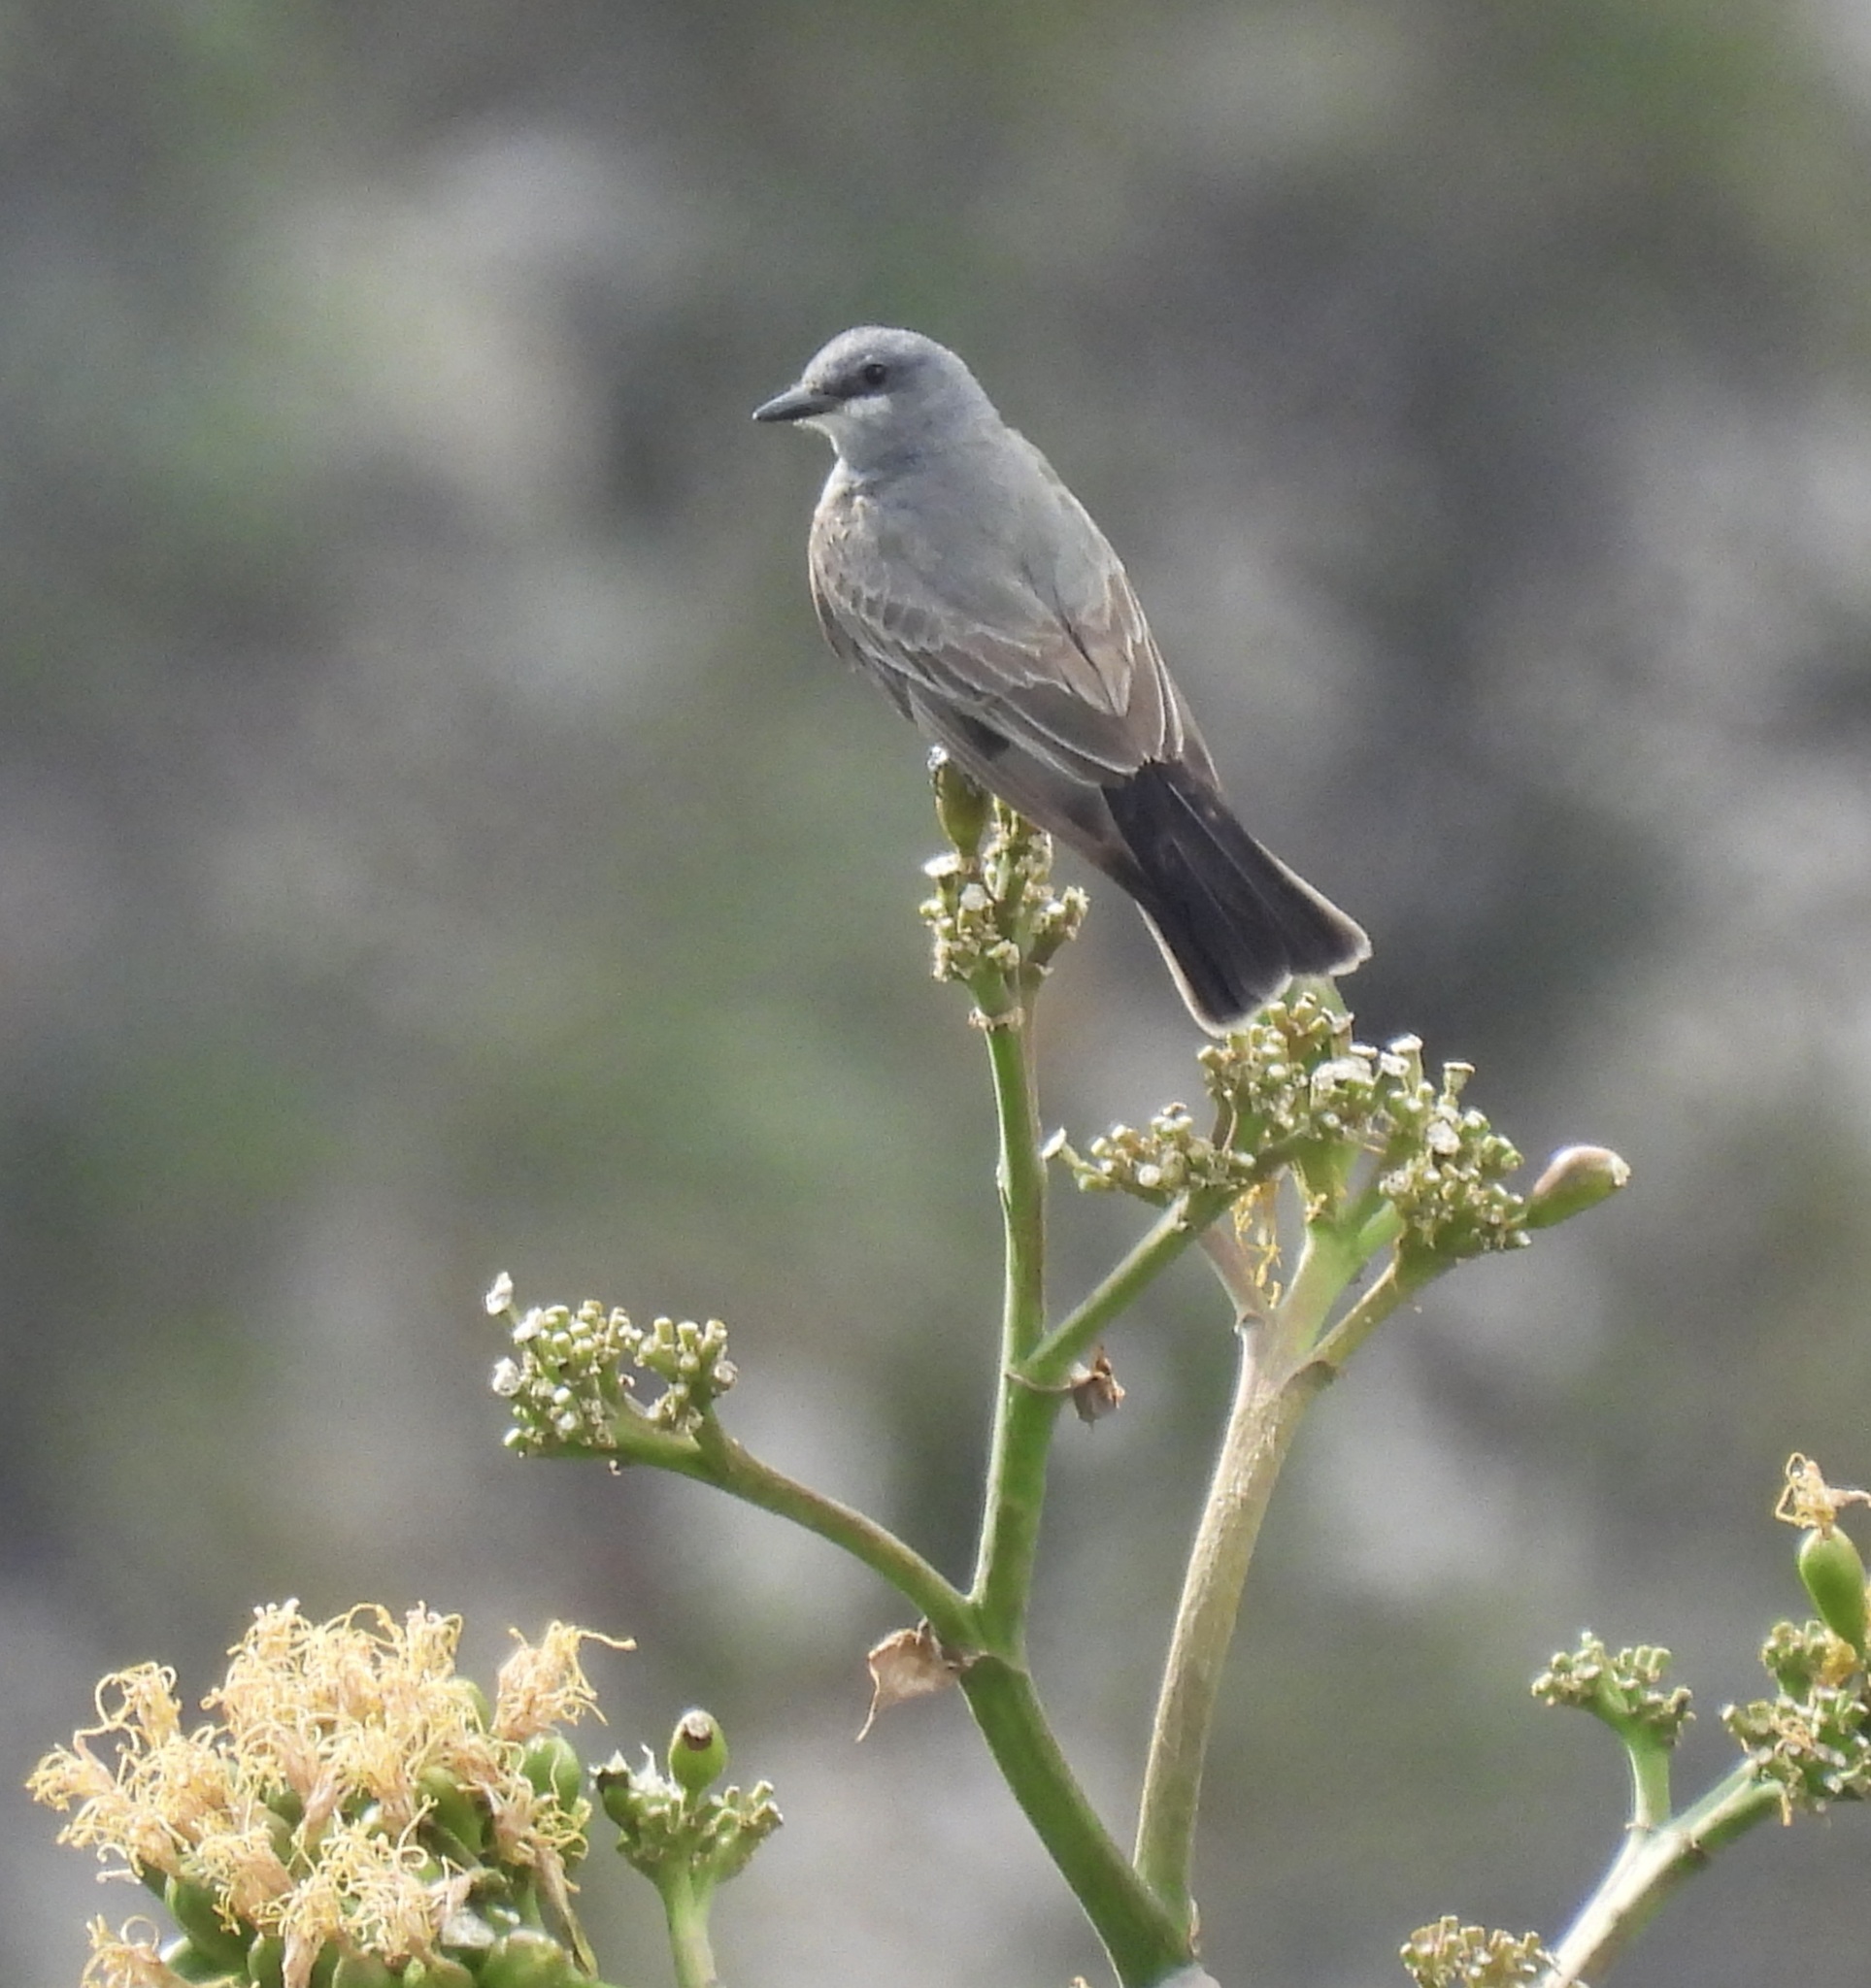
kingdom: Animalia
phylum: Chordata
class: Aves
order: Passeriformes
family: Tyrannidae
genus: Tyrannus
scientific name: Tyrannus vociferans
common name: Cassin's kingbird
